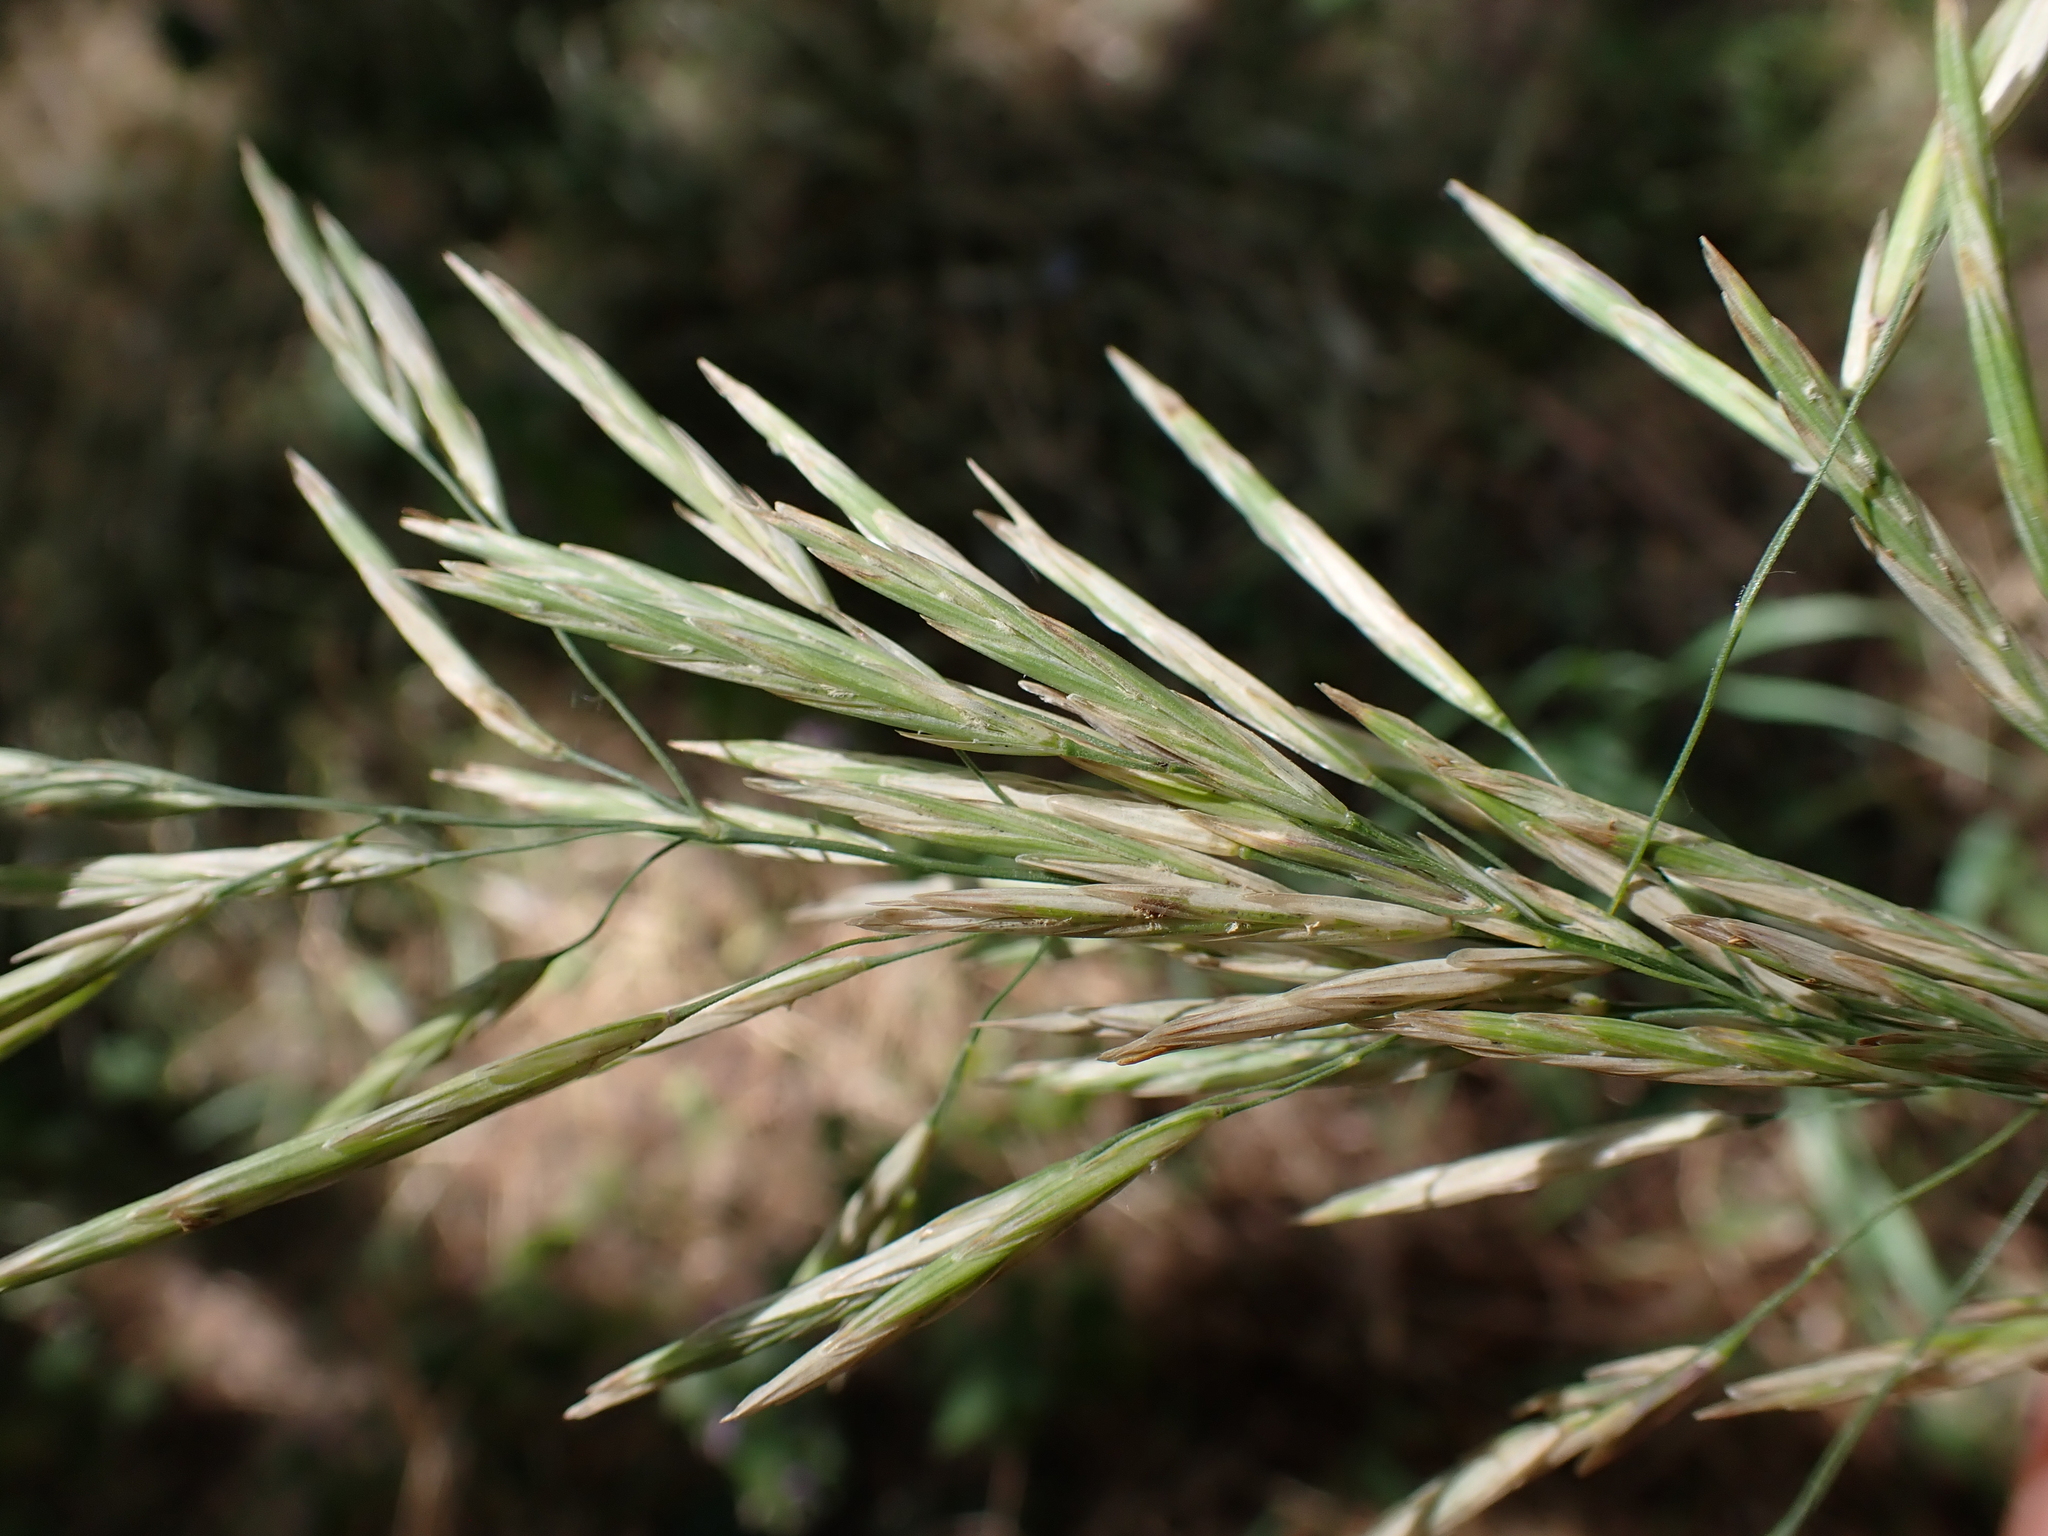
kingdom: Plantae
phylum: Tracheophyta
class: Liliopsida
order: Poales
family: Poaceae
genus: Bromus
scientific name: Bromus inermis
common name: Smooth brome
